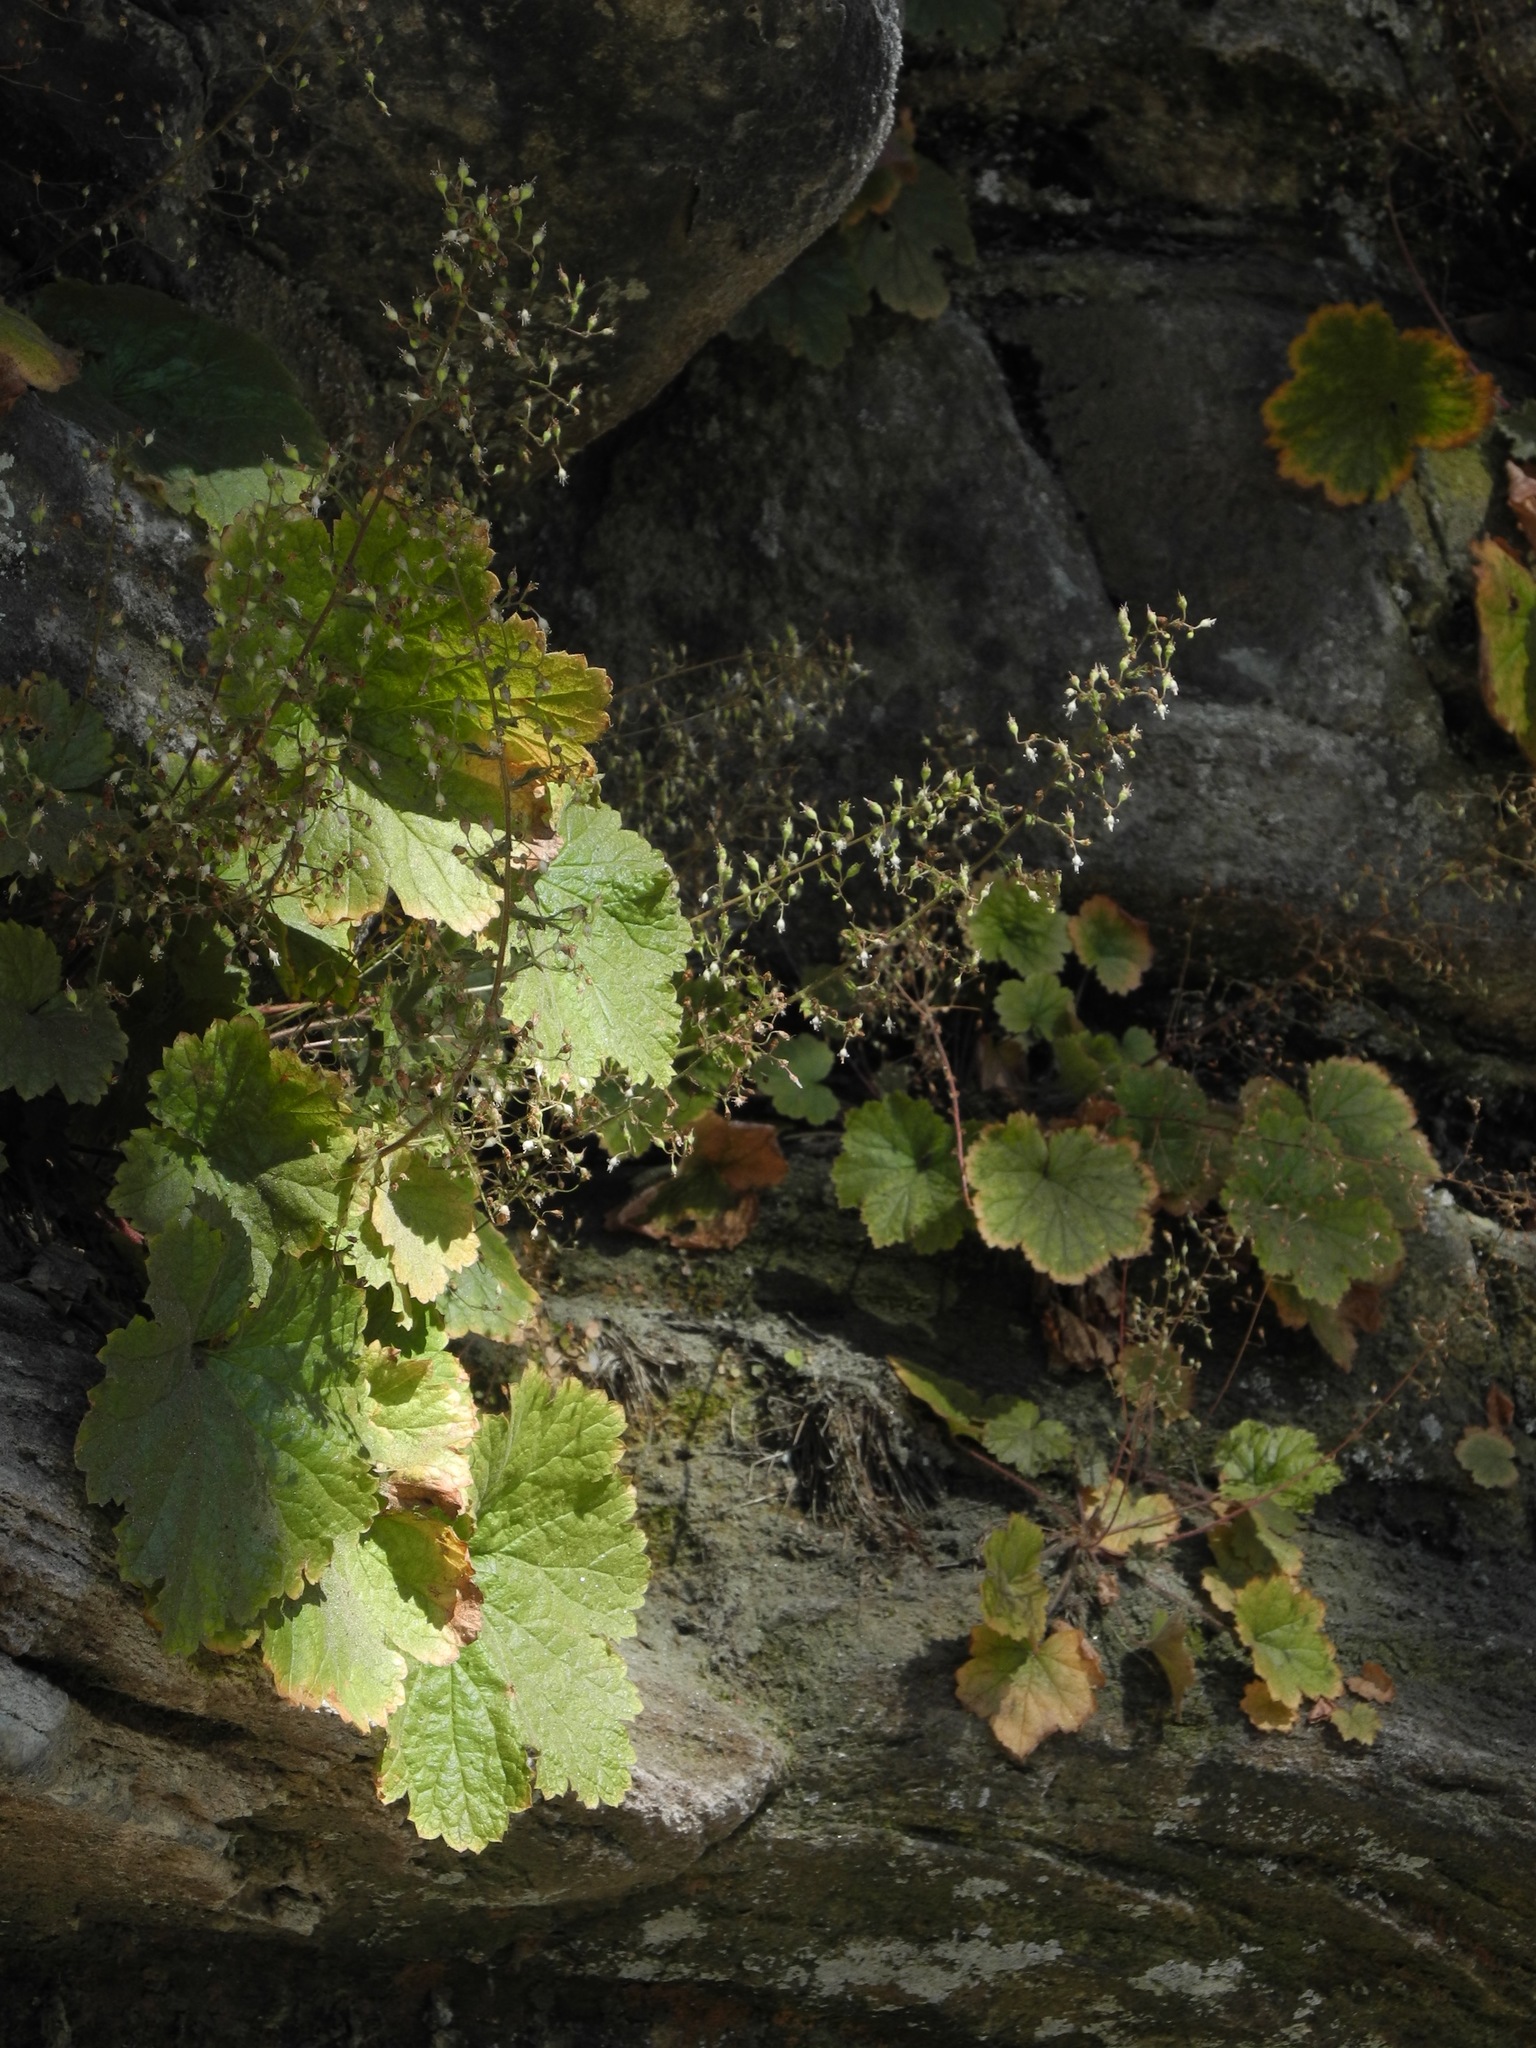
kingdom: Plantae
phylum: Tracheophyta
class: Magnoliopsida
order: Saxifragales
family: Saxifragaceae
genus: Heuchera
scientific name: Heuchera villosa
